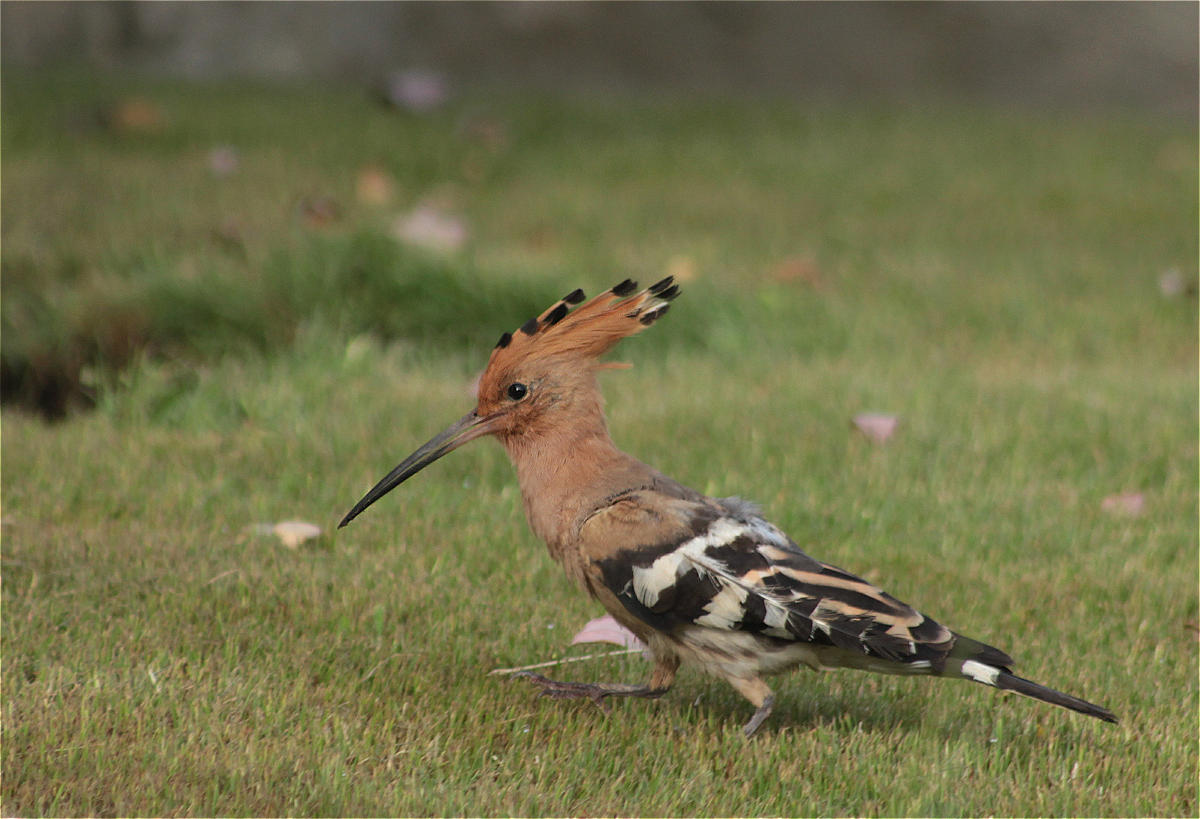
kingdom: Animalia
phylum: Chordata
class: Aves
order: Bucerotiformes
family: Upupidae
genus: Upupa
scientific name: Upupa epops
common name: Eurasian hoopoe
